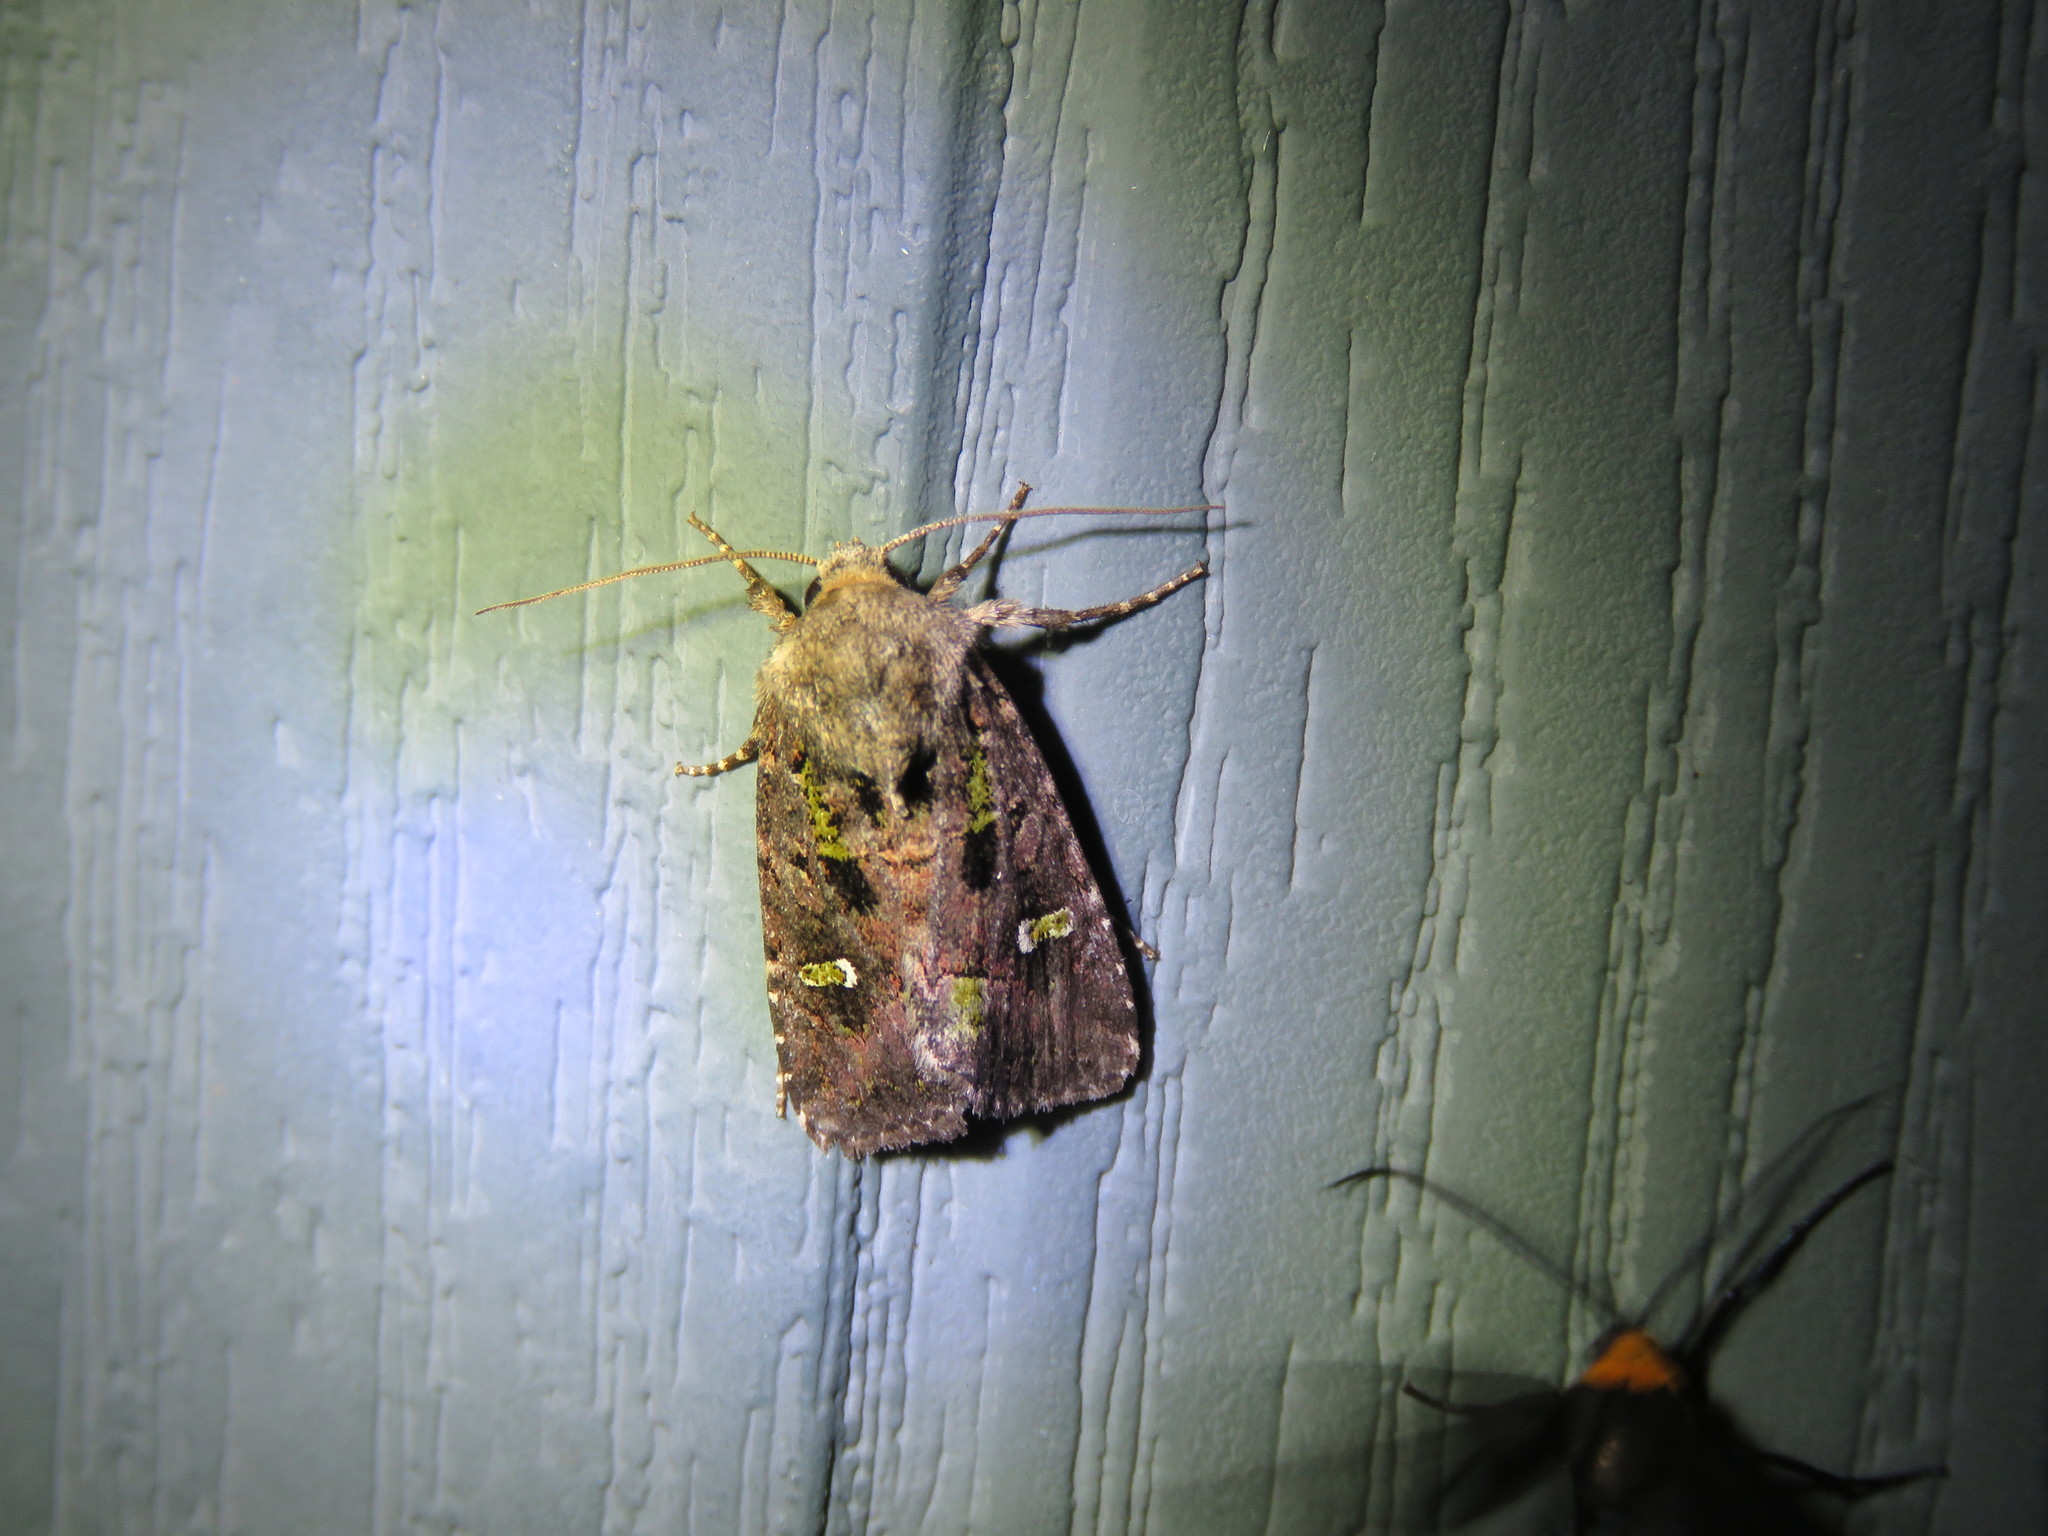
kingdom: Animalia
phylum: Arthropoda
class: Insecta
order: Lepidoptera
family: Noctuidae
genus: Lacinipolia
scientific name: Lacinipolia renigera
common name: Kidney-spotted minor
